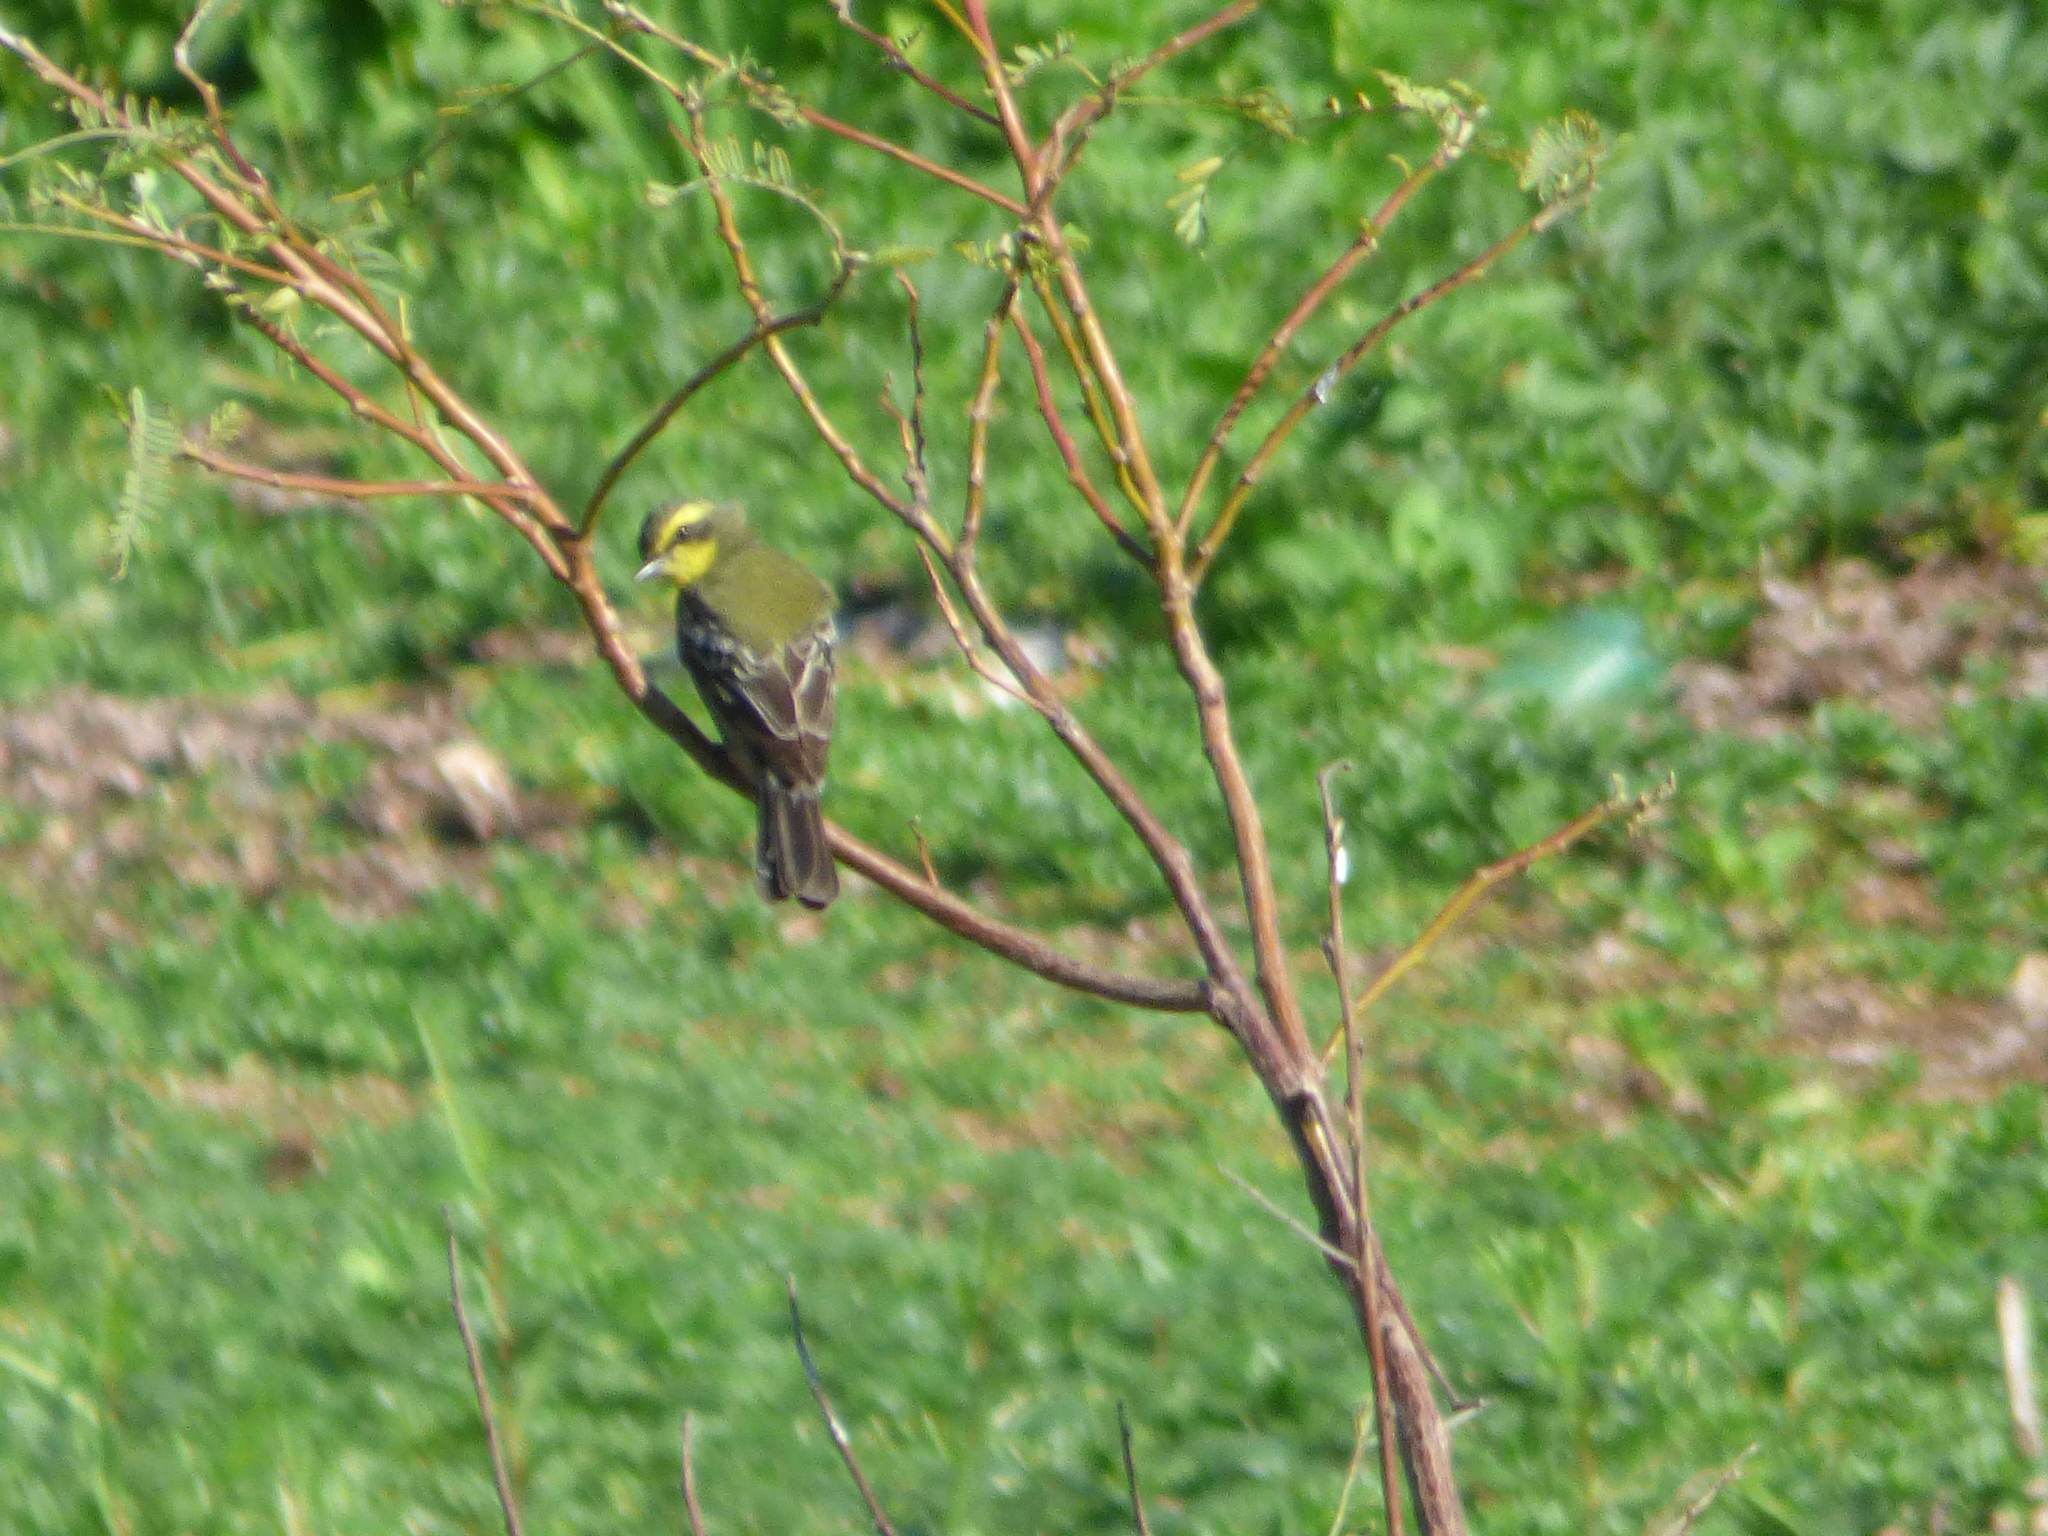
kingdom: Animalia
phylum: Chordata
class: Aves
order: Passeriformes
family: Tyrannidae
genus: Satrapa
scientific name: Satrapa icterophrys
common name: Yellow-browed tyrant
